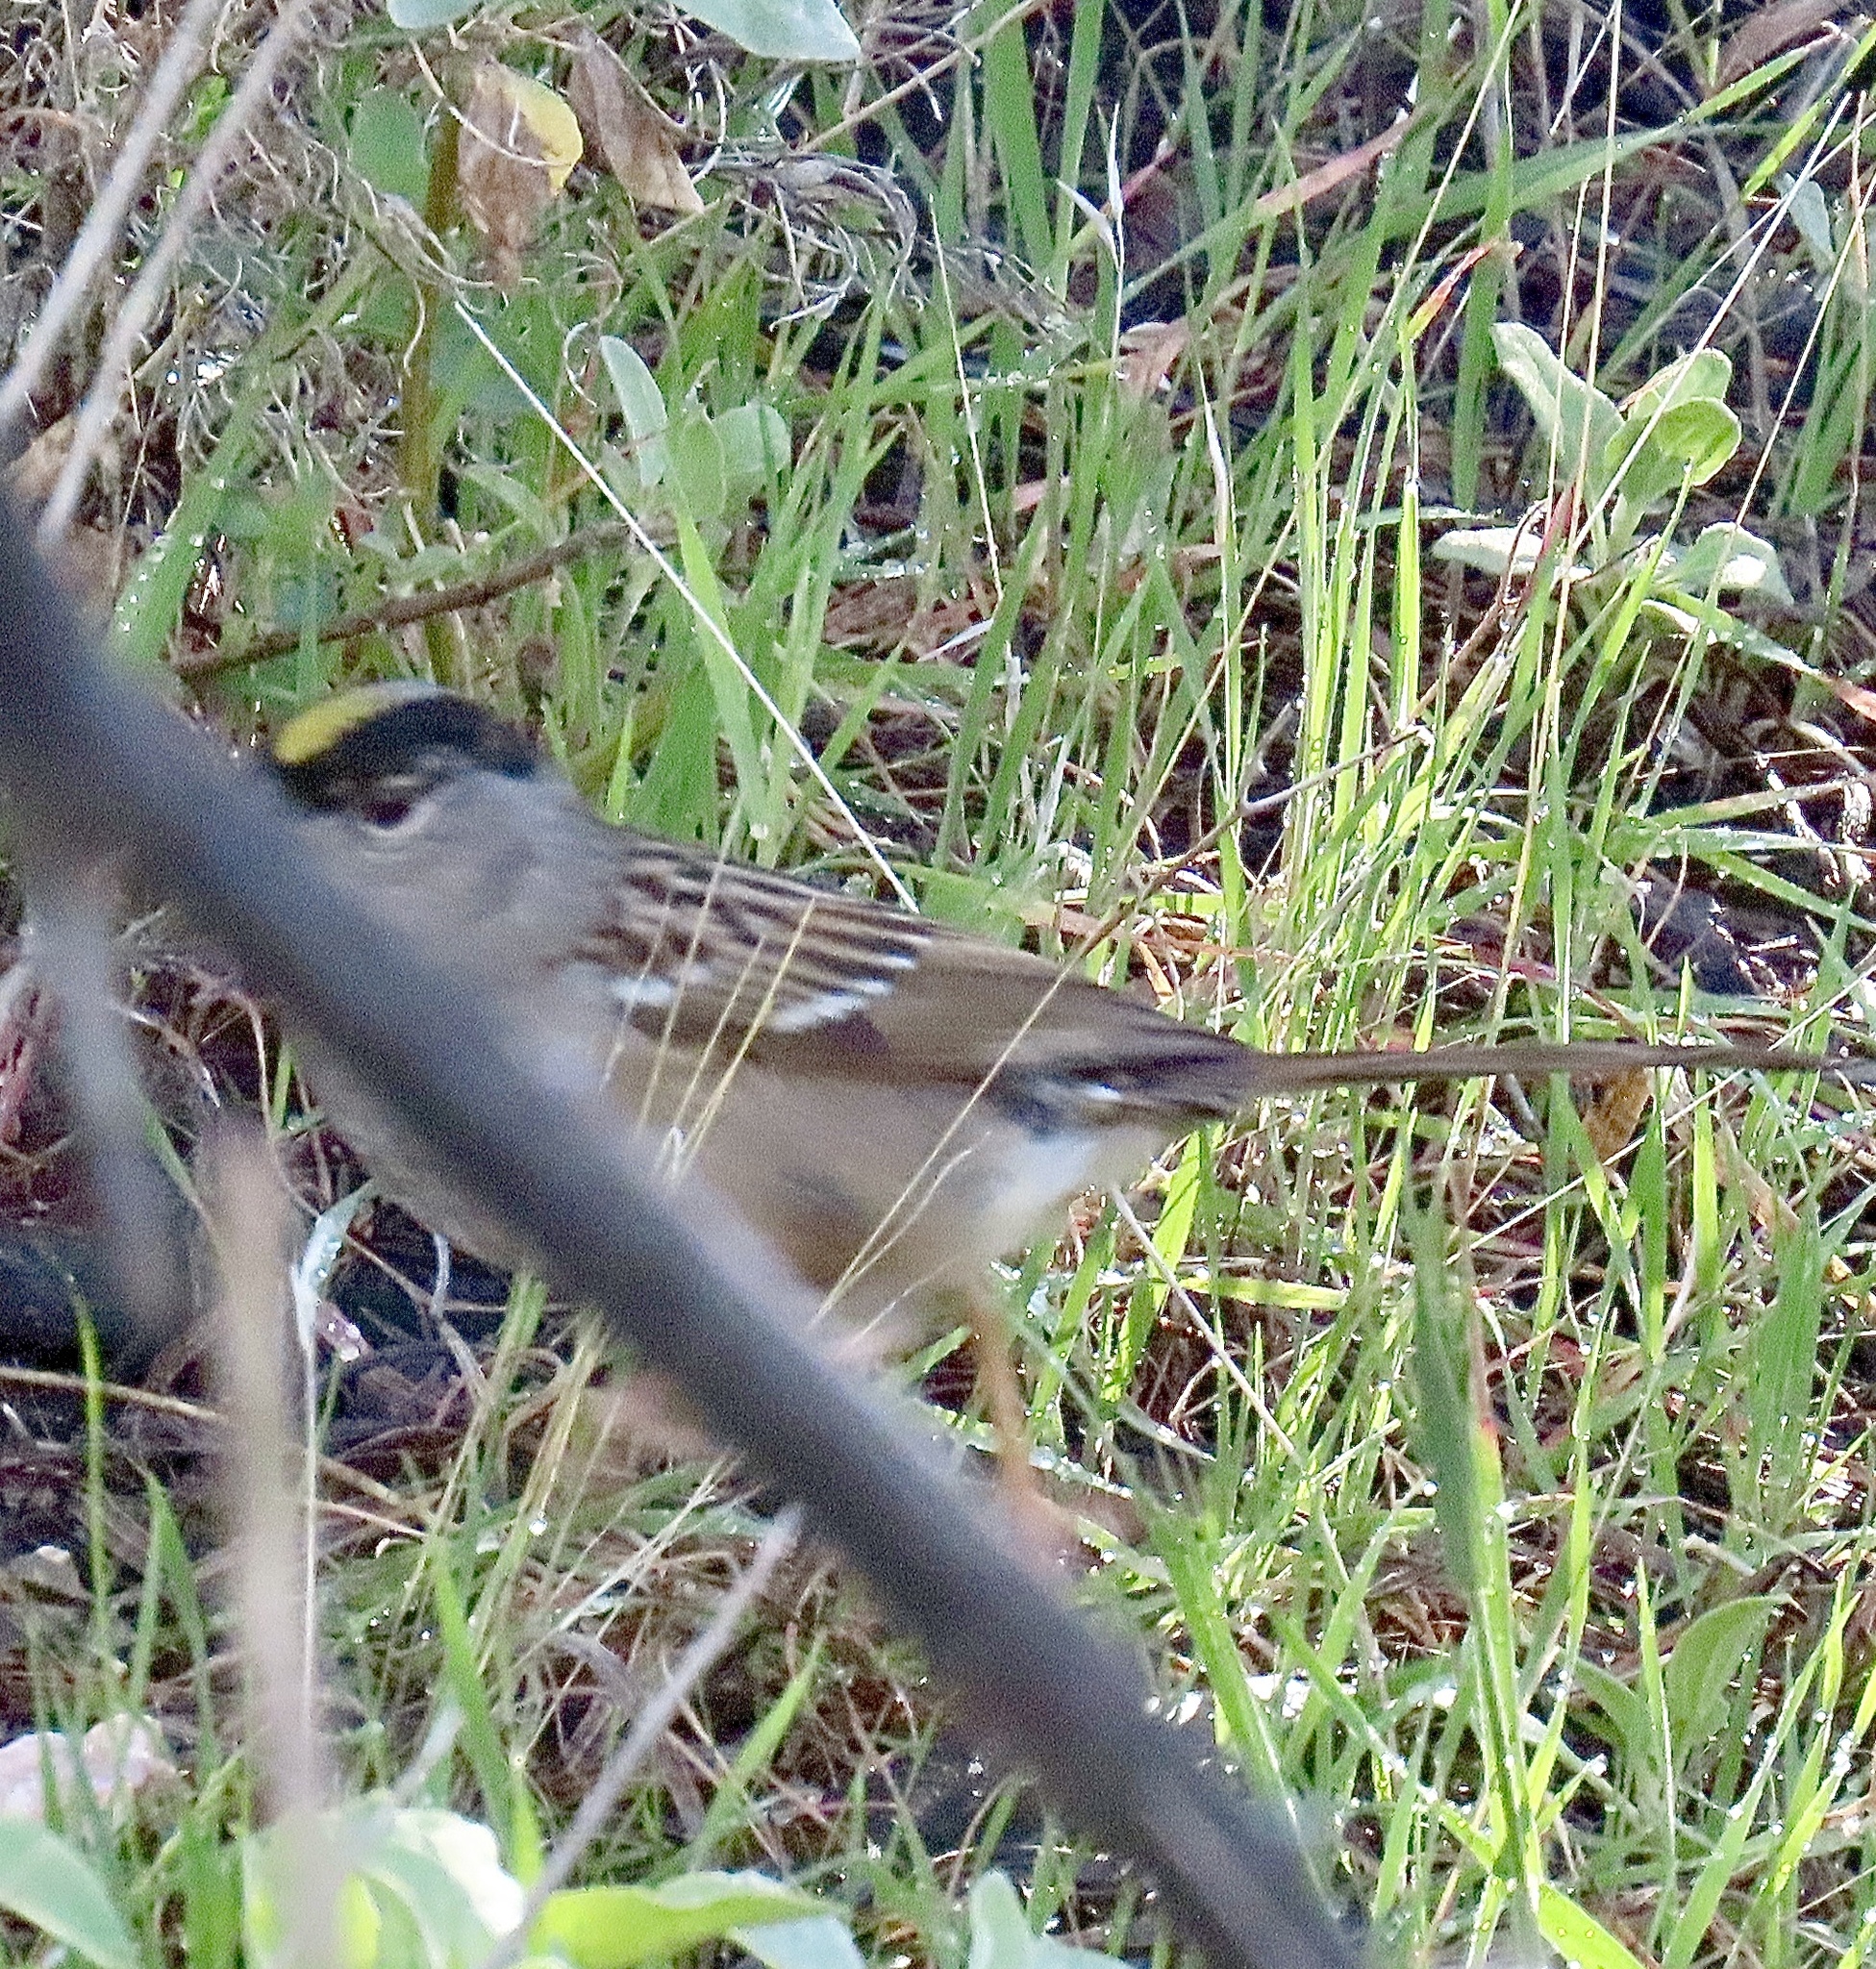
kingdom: Animalia
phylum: Chordata
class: Aves
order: Passeriformes
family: Passerellidae
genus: Zonotrichia
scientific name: Zonotrichia atricapilla
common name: Golden-crowned sparrow
